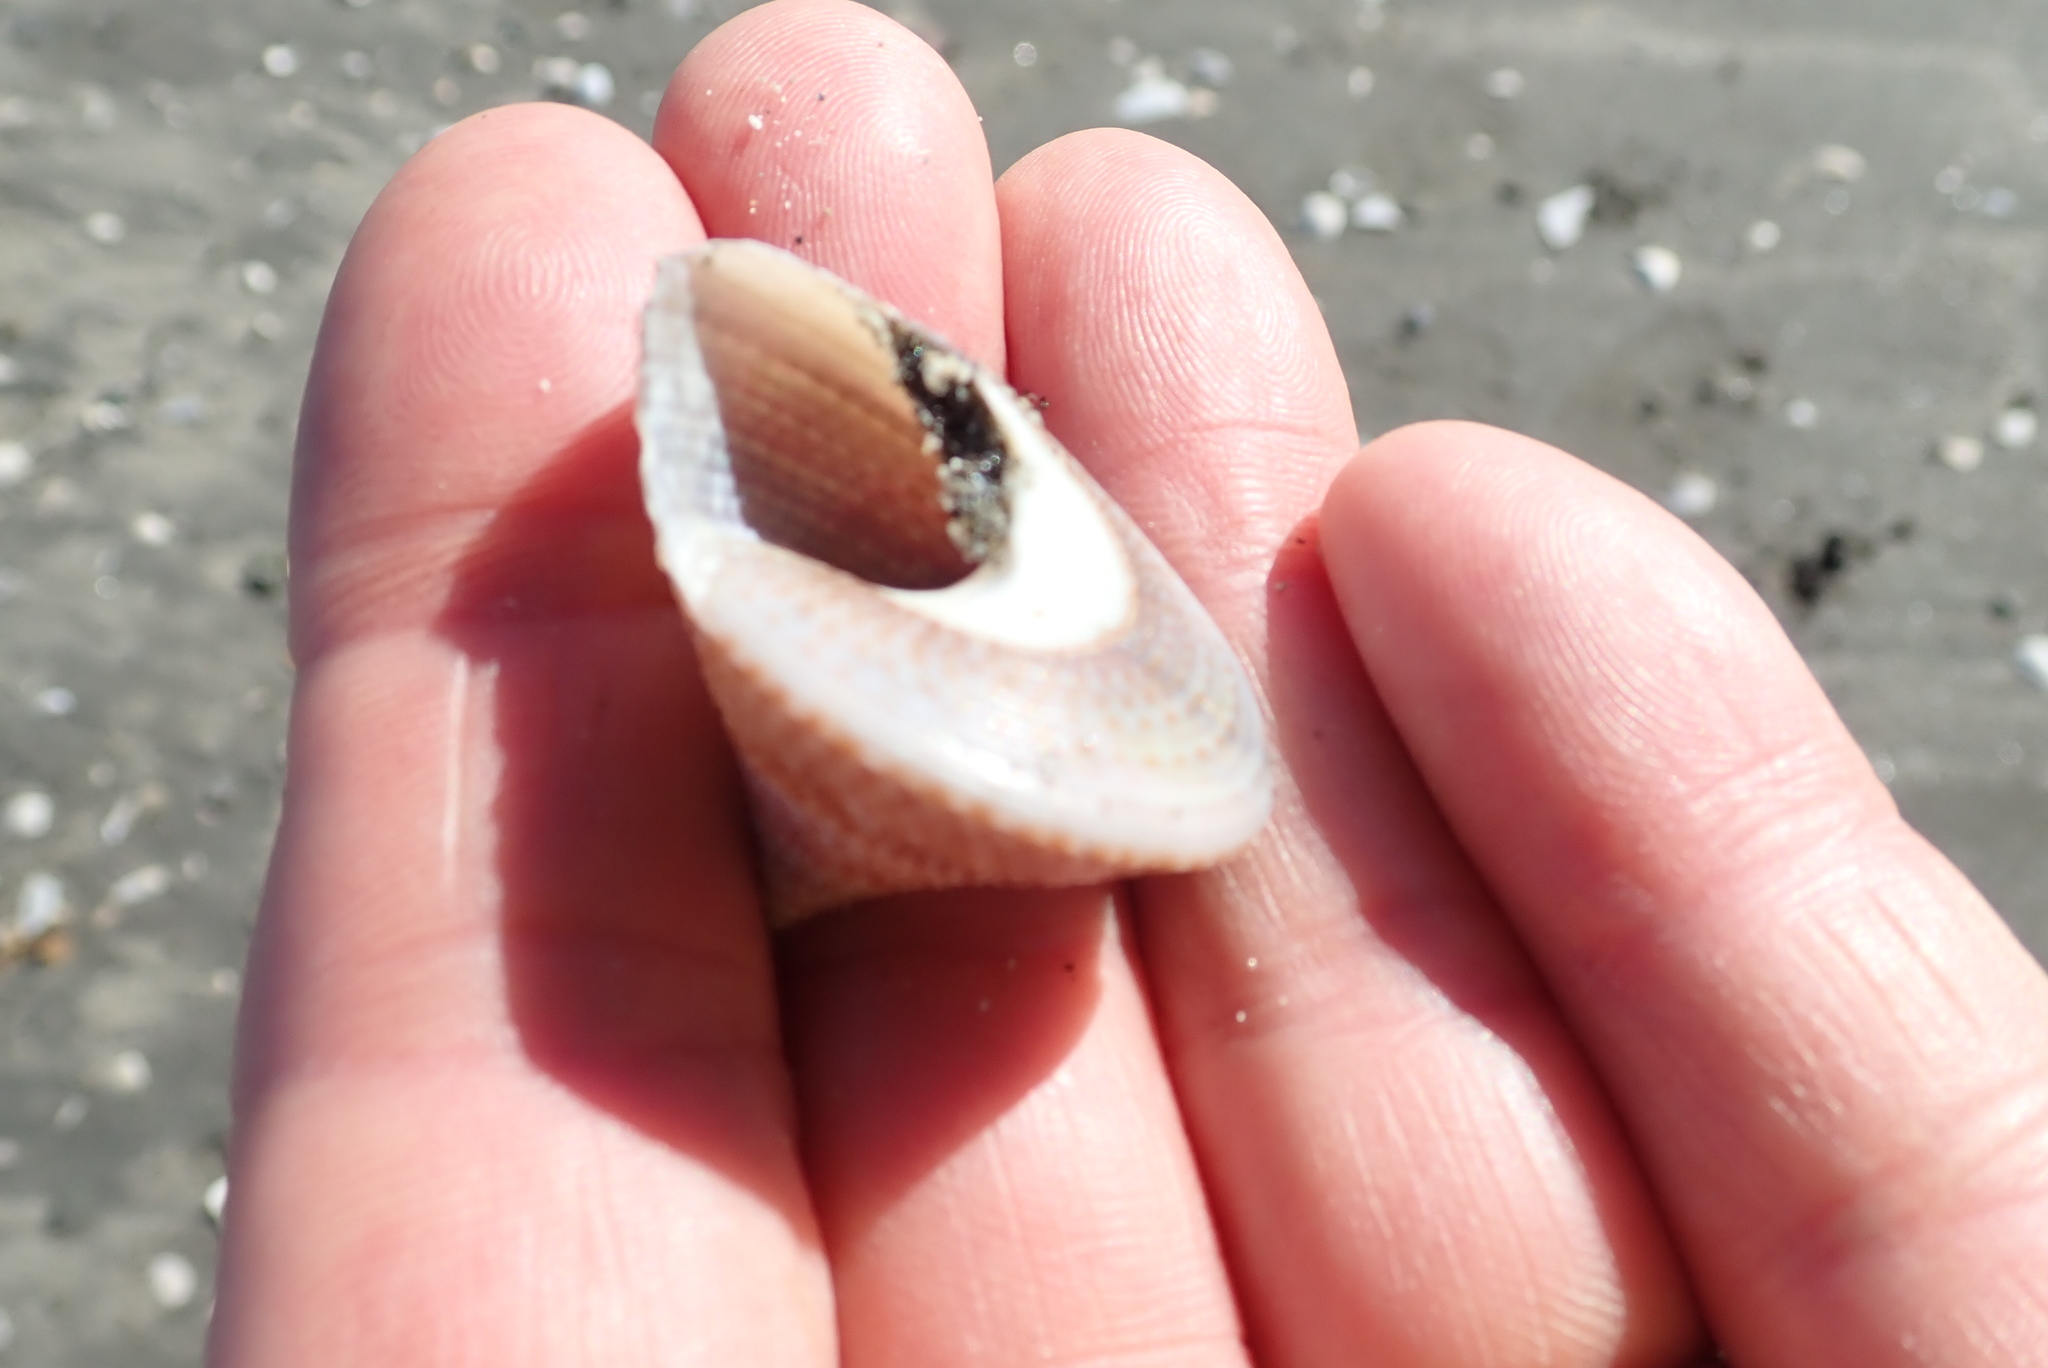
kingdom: Animalia
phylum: Mollusca
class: Gastropoda
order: Trochida
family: Calliostomatidae
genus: Maurea
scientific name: Maurea selecta
